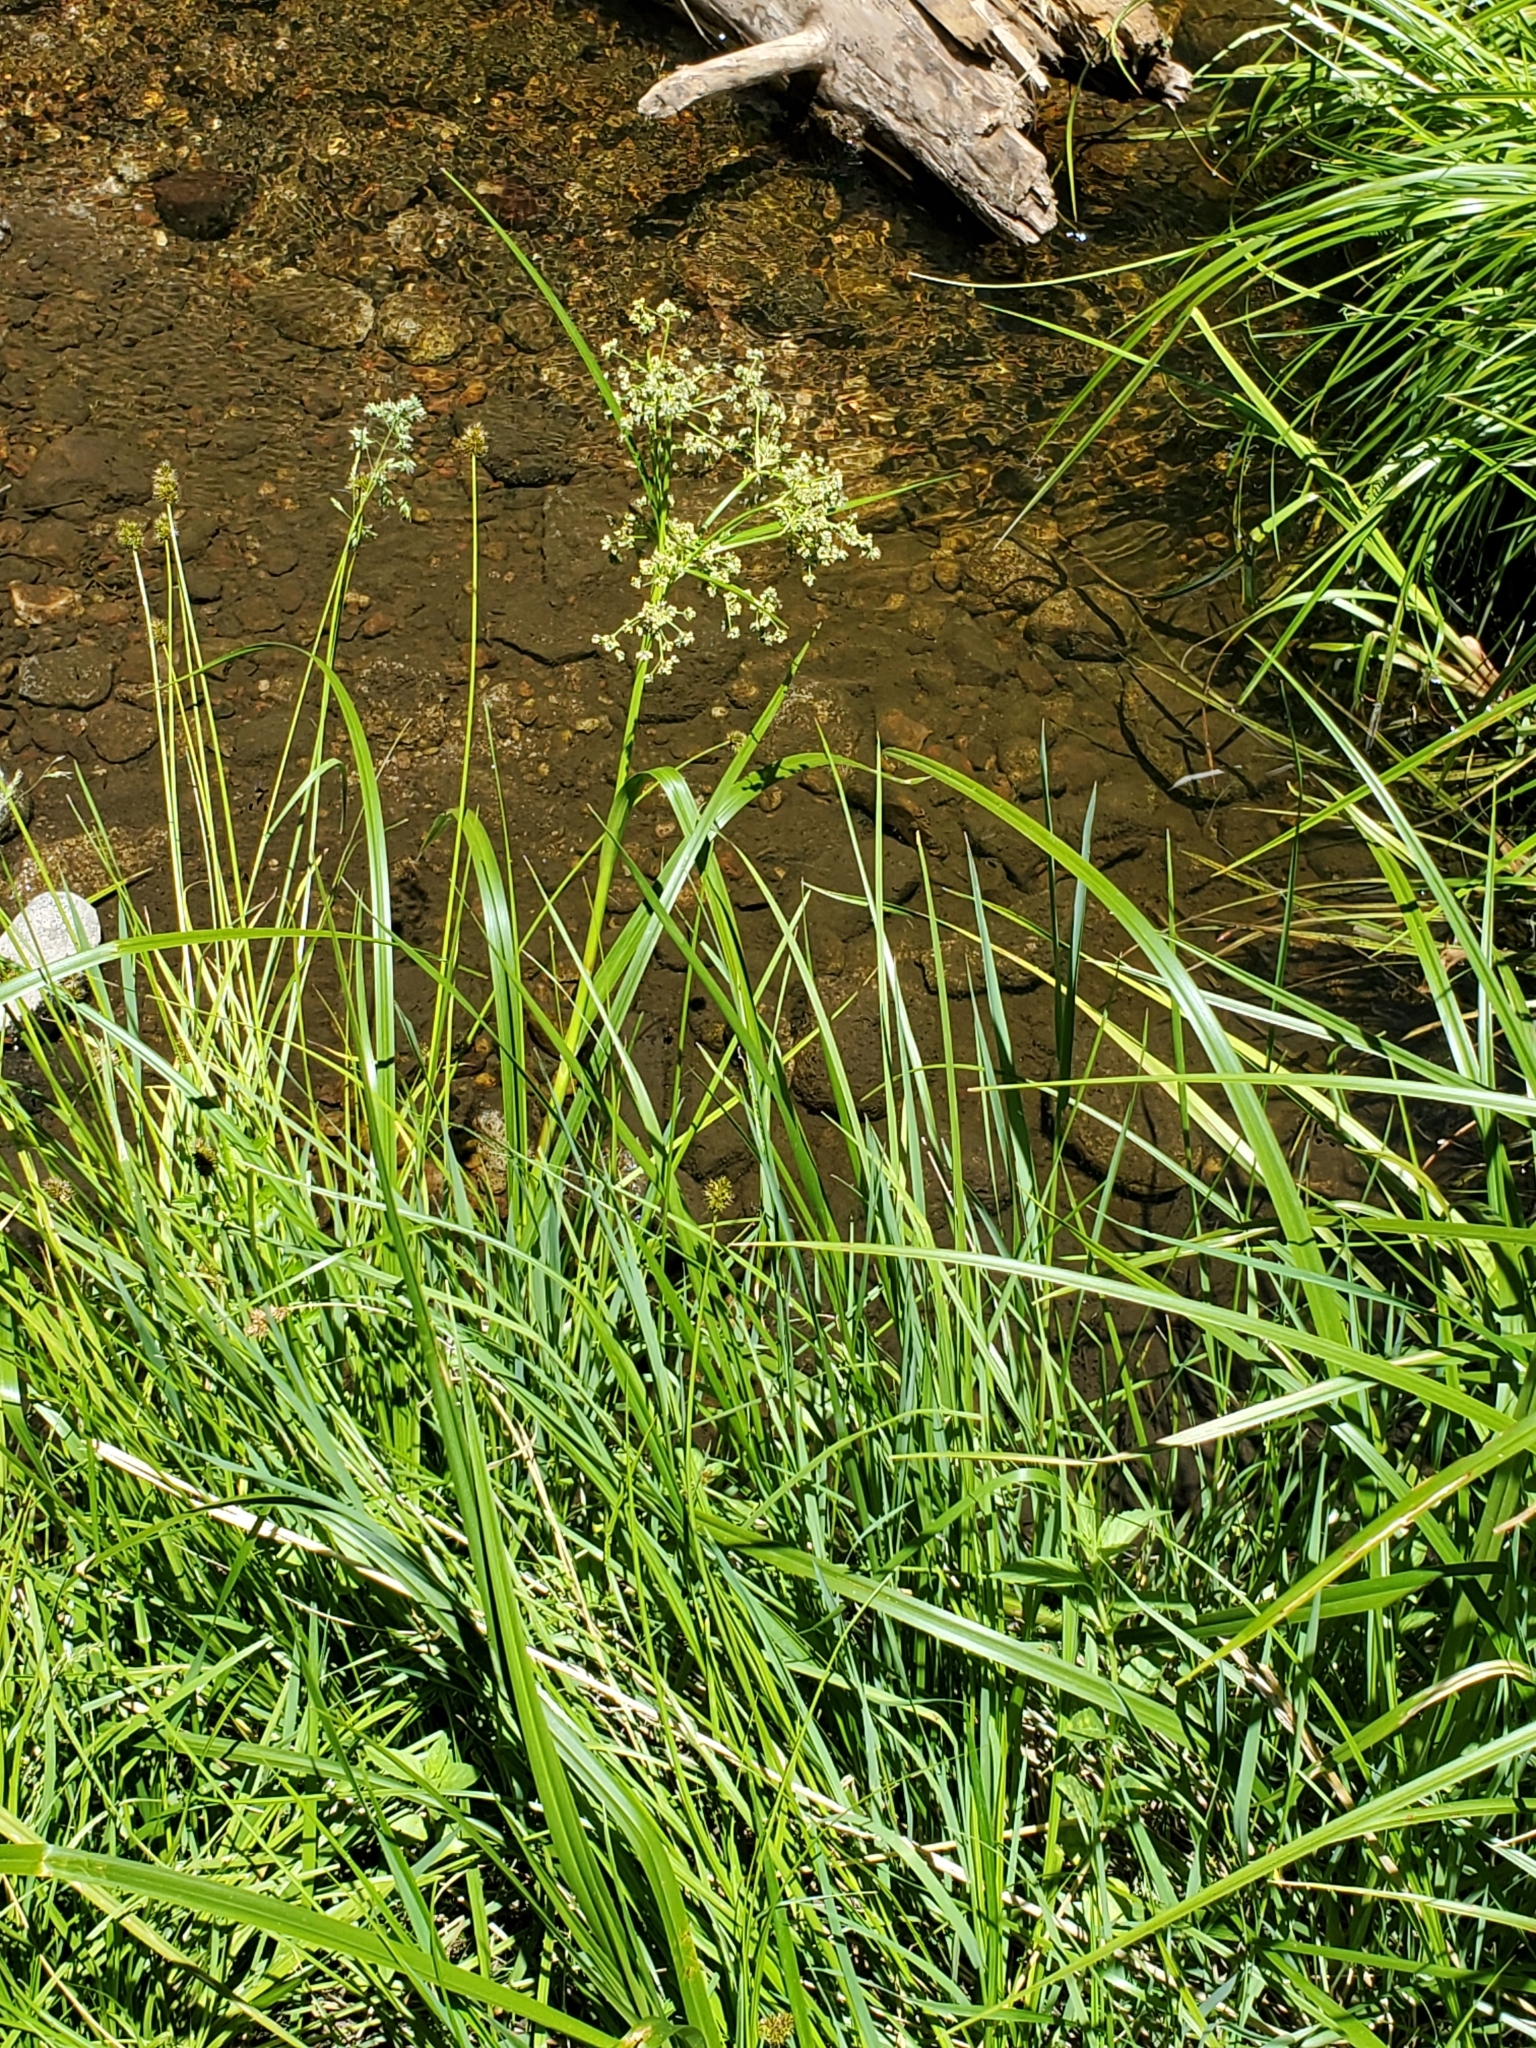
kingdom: Plantae
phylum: Tracheophyta
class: Liliopsida
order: Poales
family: Cyperaceae
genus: Scirpus
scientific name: Scirpus microcarpus
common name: Panicled bulrush
